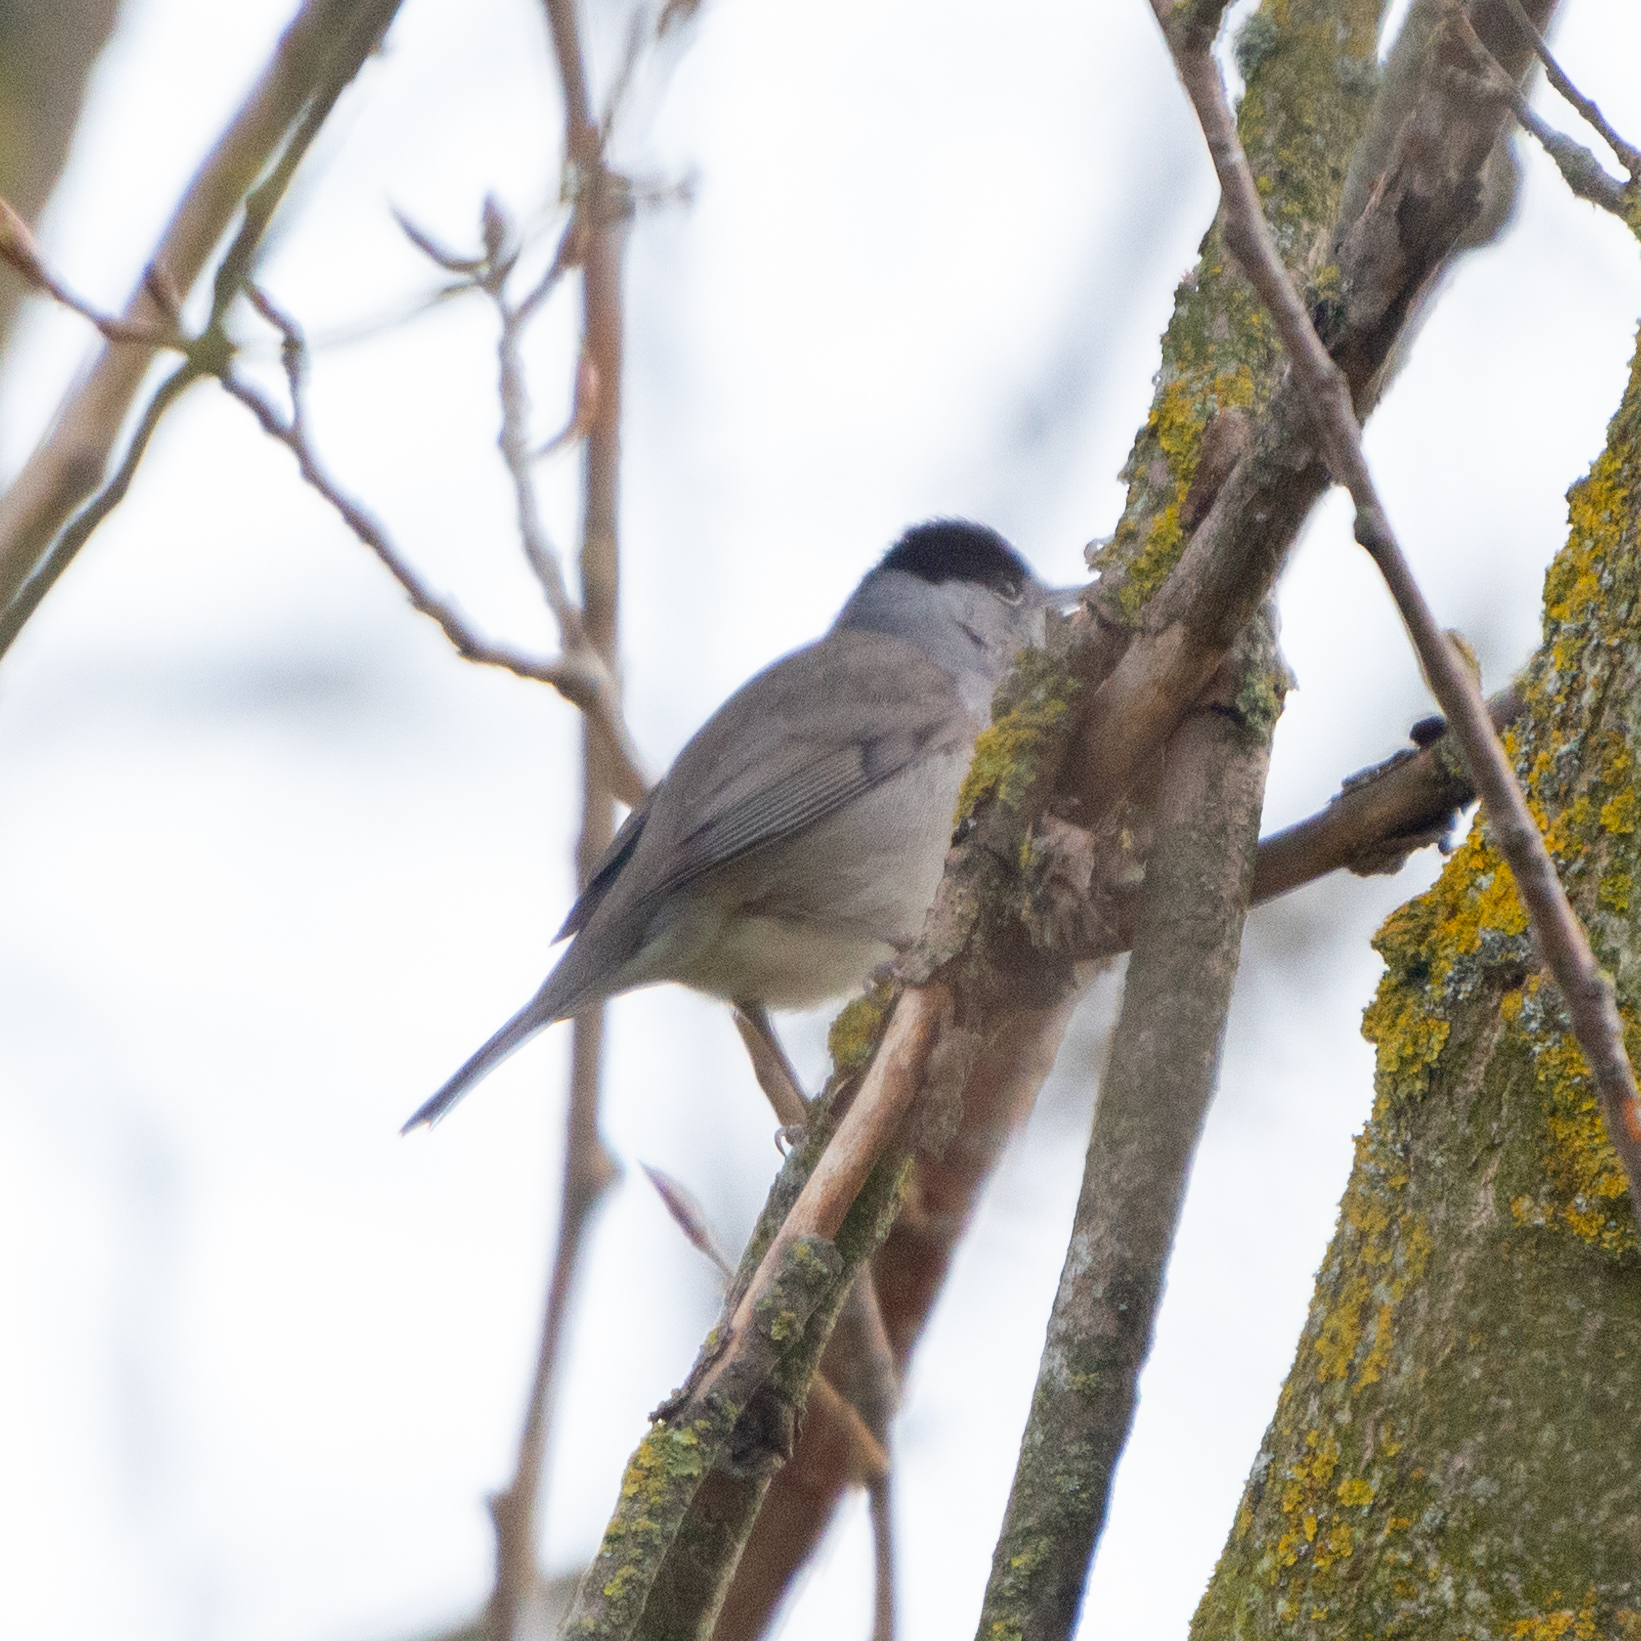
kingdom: Animalia
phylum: Chordata
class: Aves
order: Passeriformes
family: Sylviidae
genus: Sylvia
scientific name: Sylvia atricapilla
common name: Eurasian blackcap
